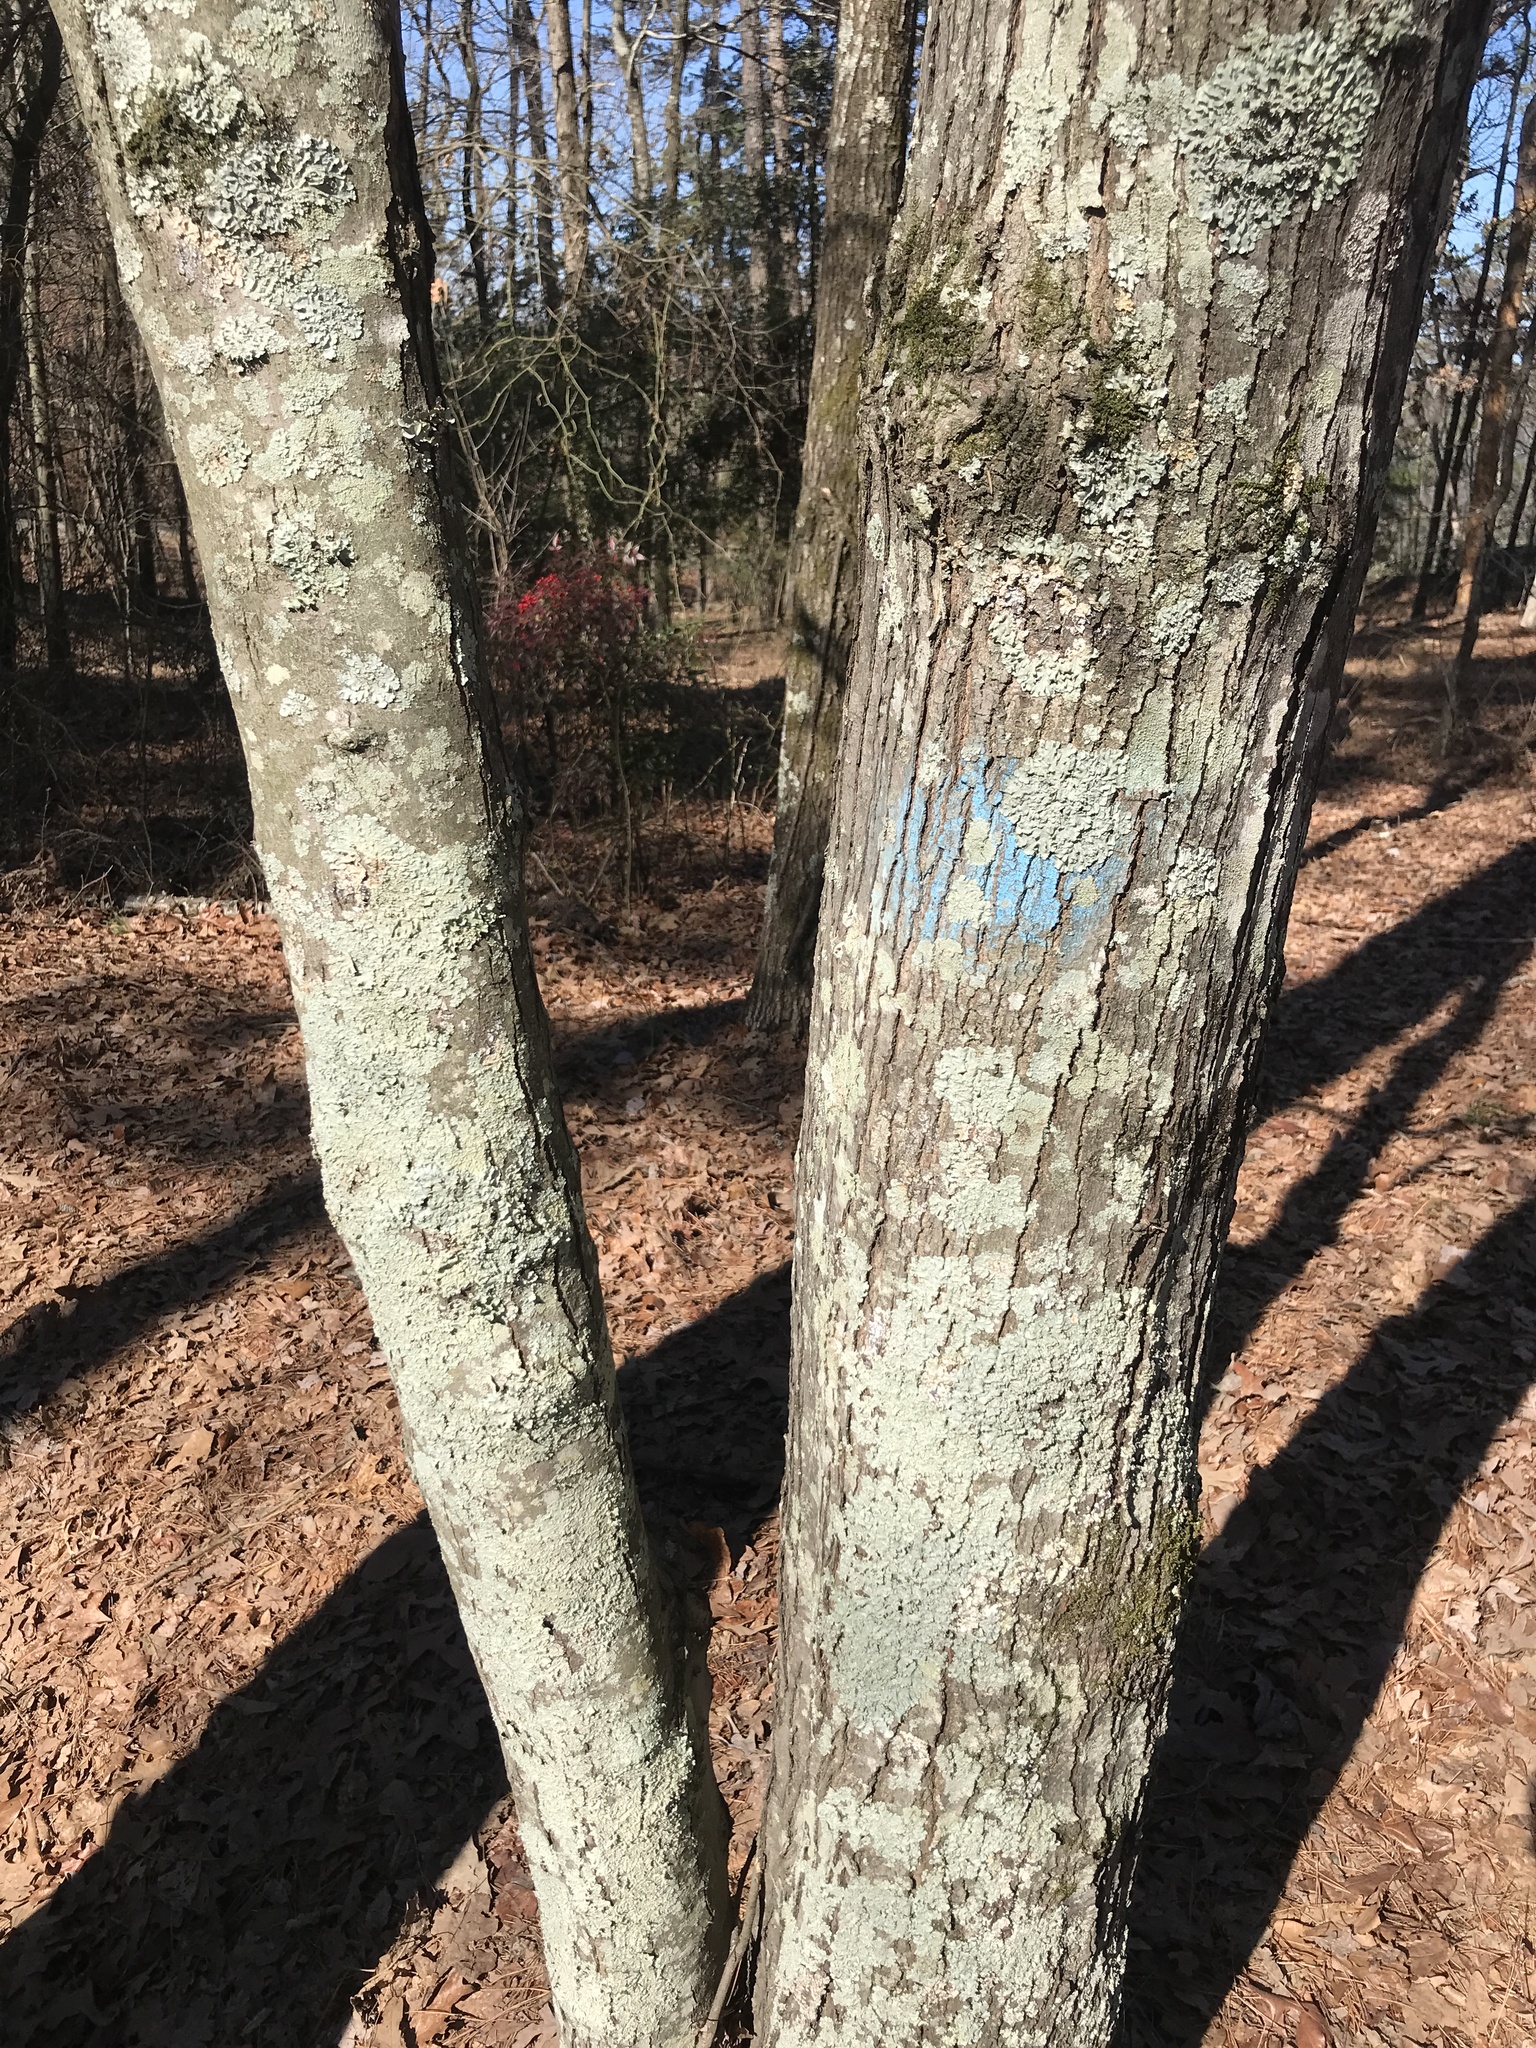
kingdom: Plantae
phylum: Tracheophyta
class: Magnoliopsida
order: Sapindales
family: Sapindaceae
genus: Acer
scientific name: Acer rubrum
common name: Red maple
